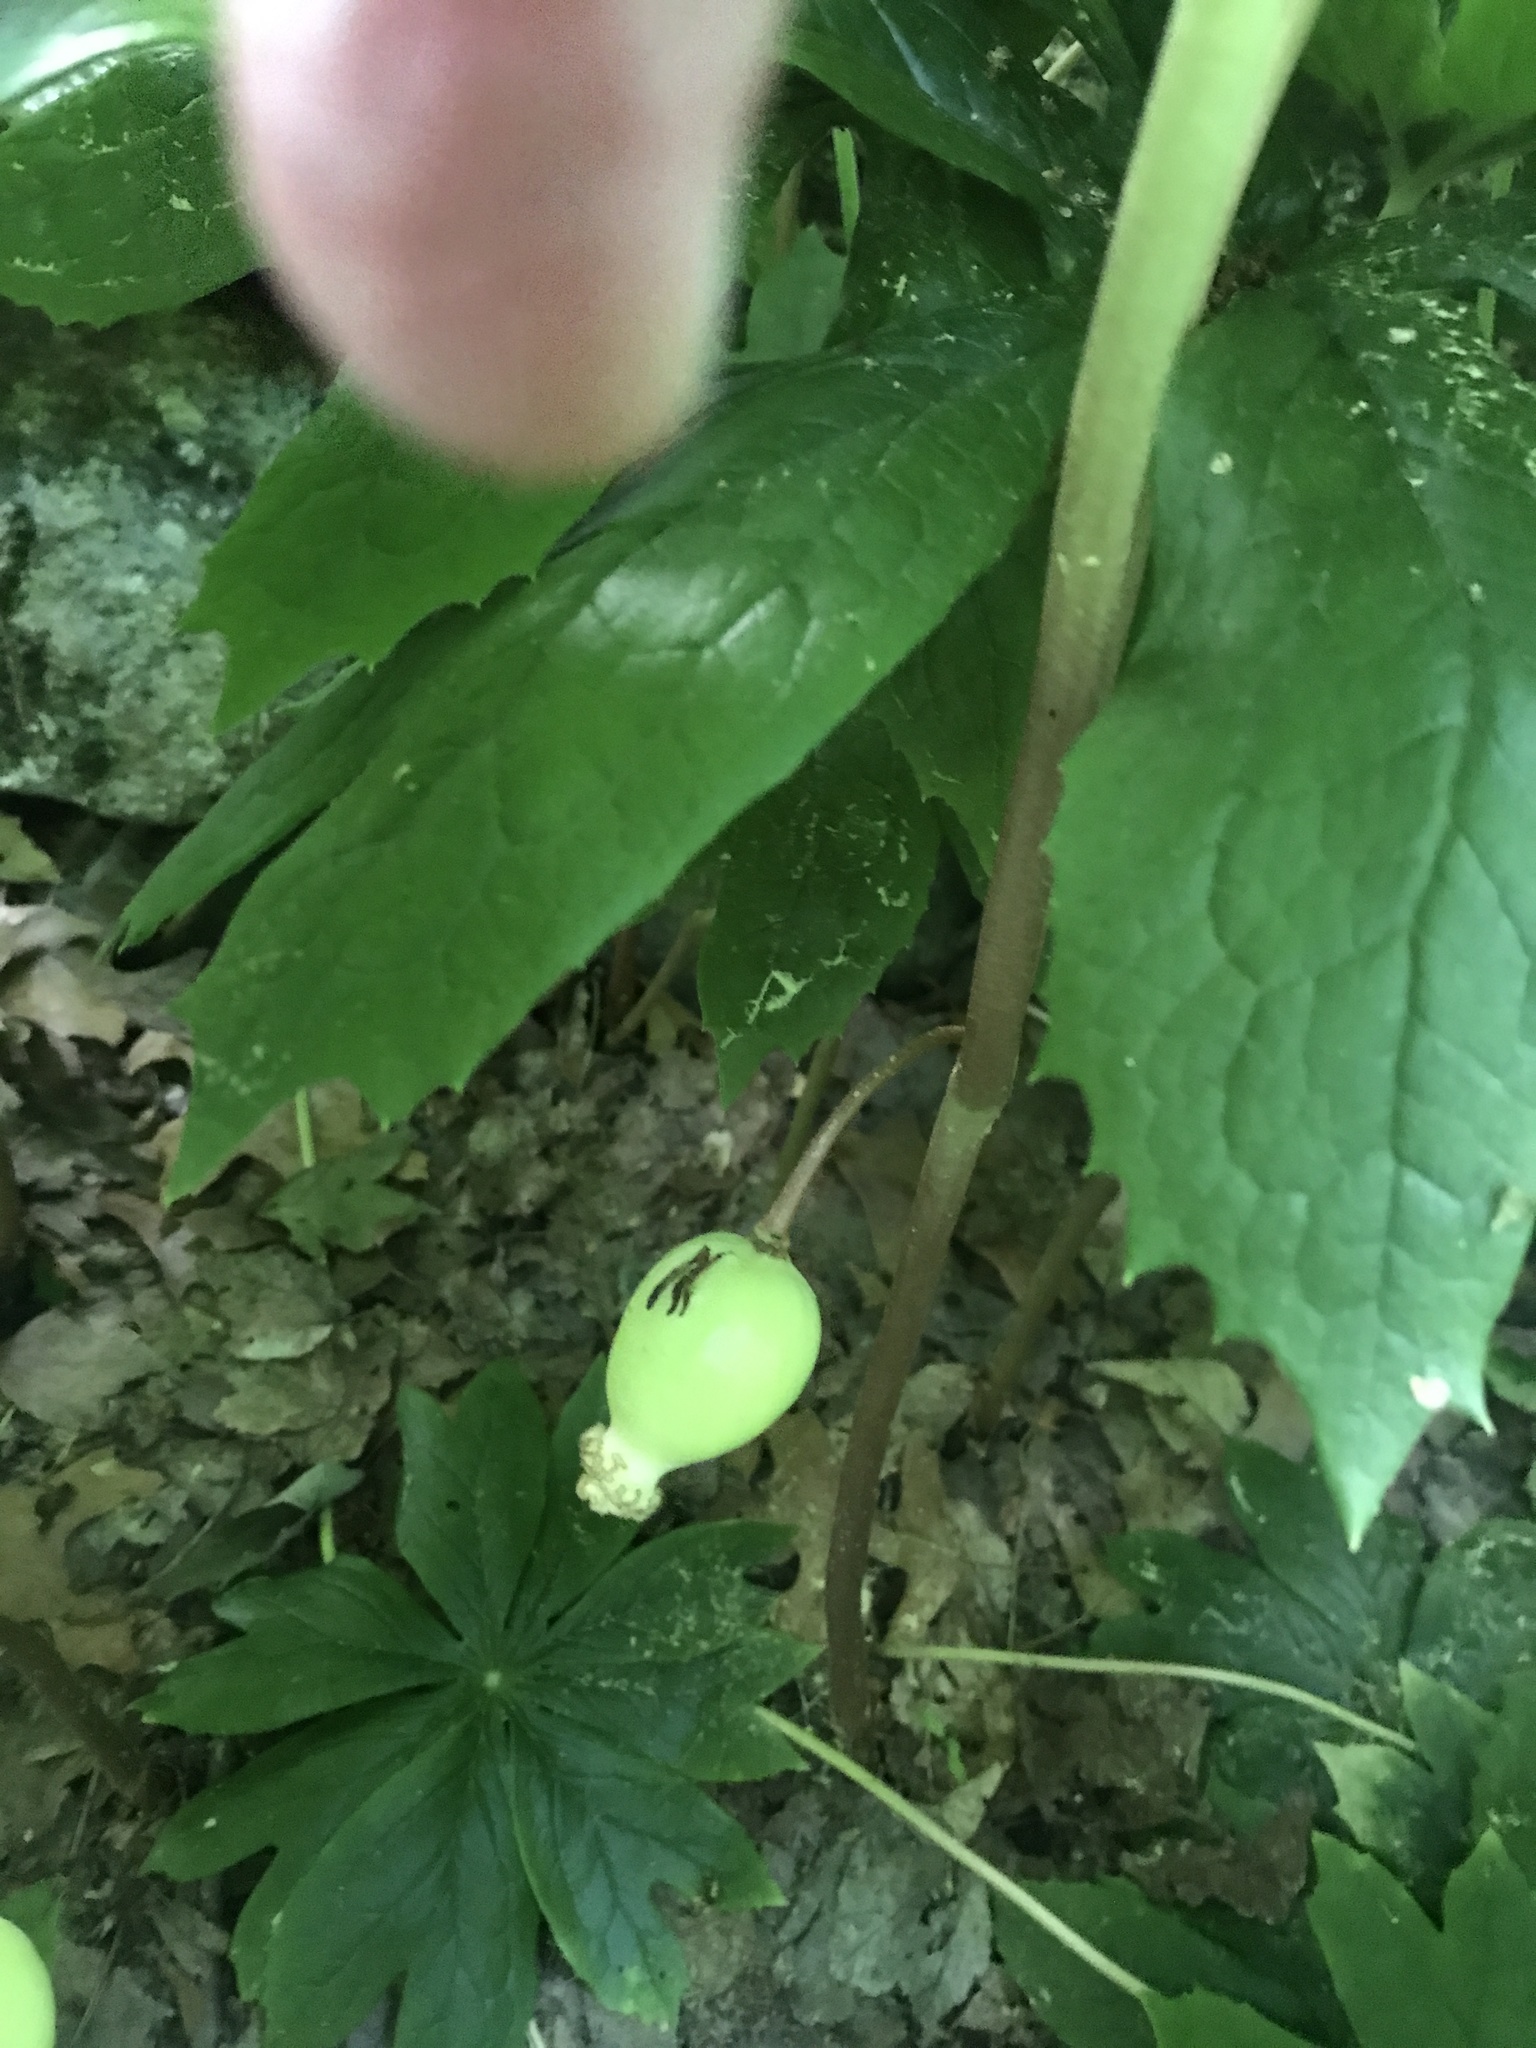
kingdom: Plantae
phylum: Tracheophyta
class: Magnoliopsida
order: Ranunculales
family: Berberidaceae
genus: Podophyllum
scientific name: Podophyllum peltatum
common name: Wild mandrake
